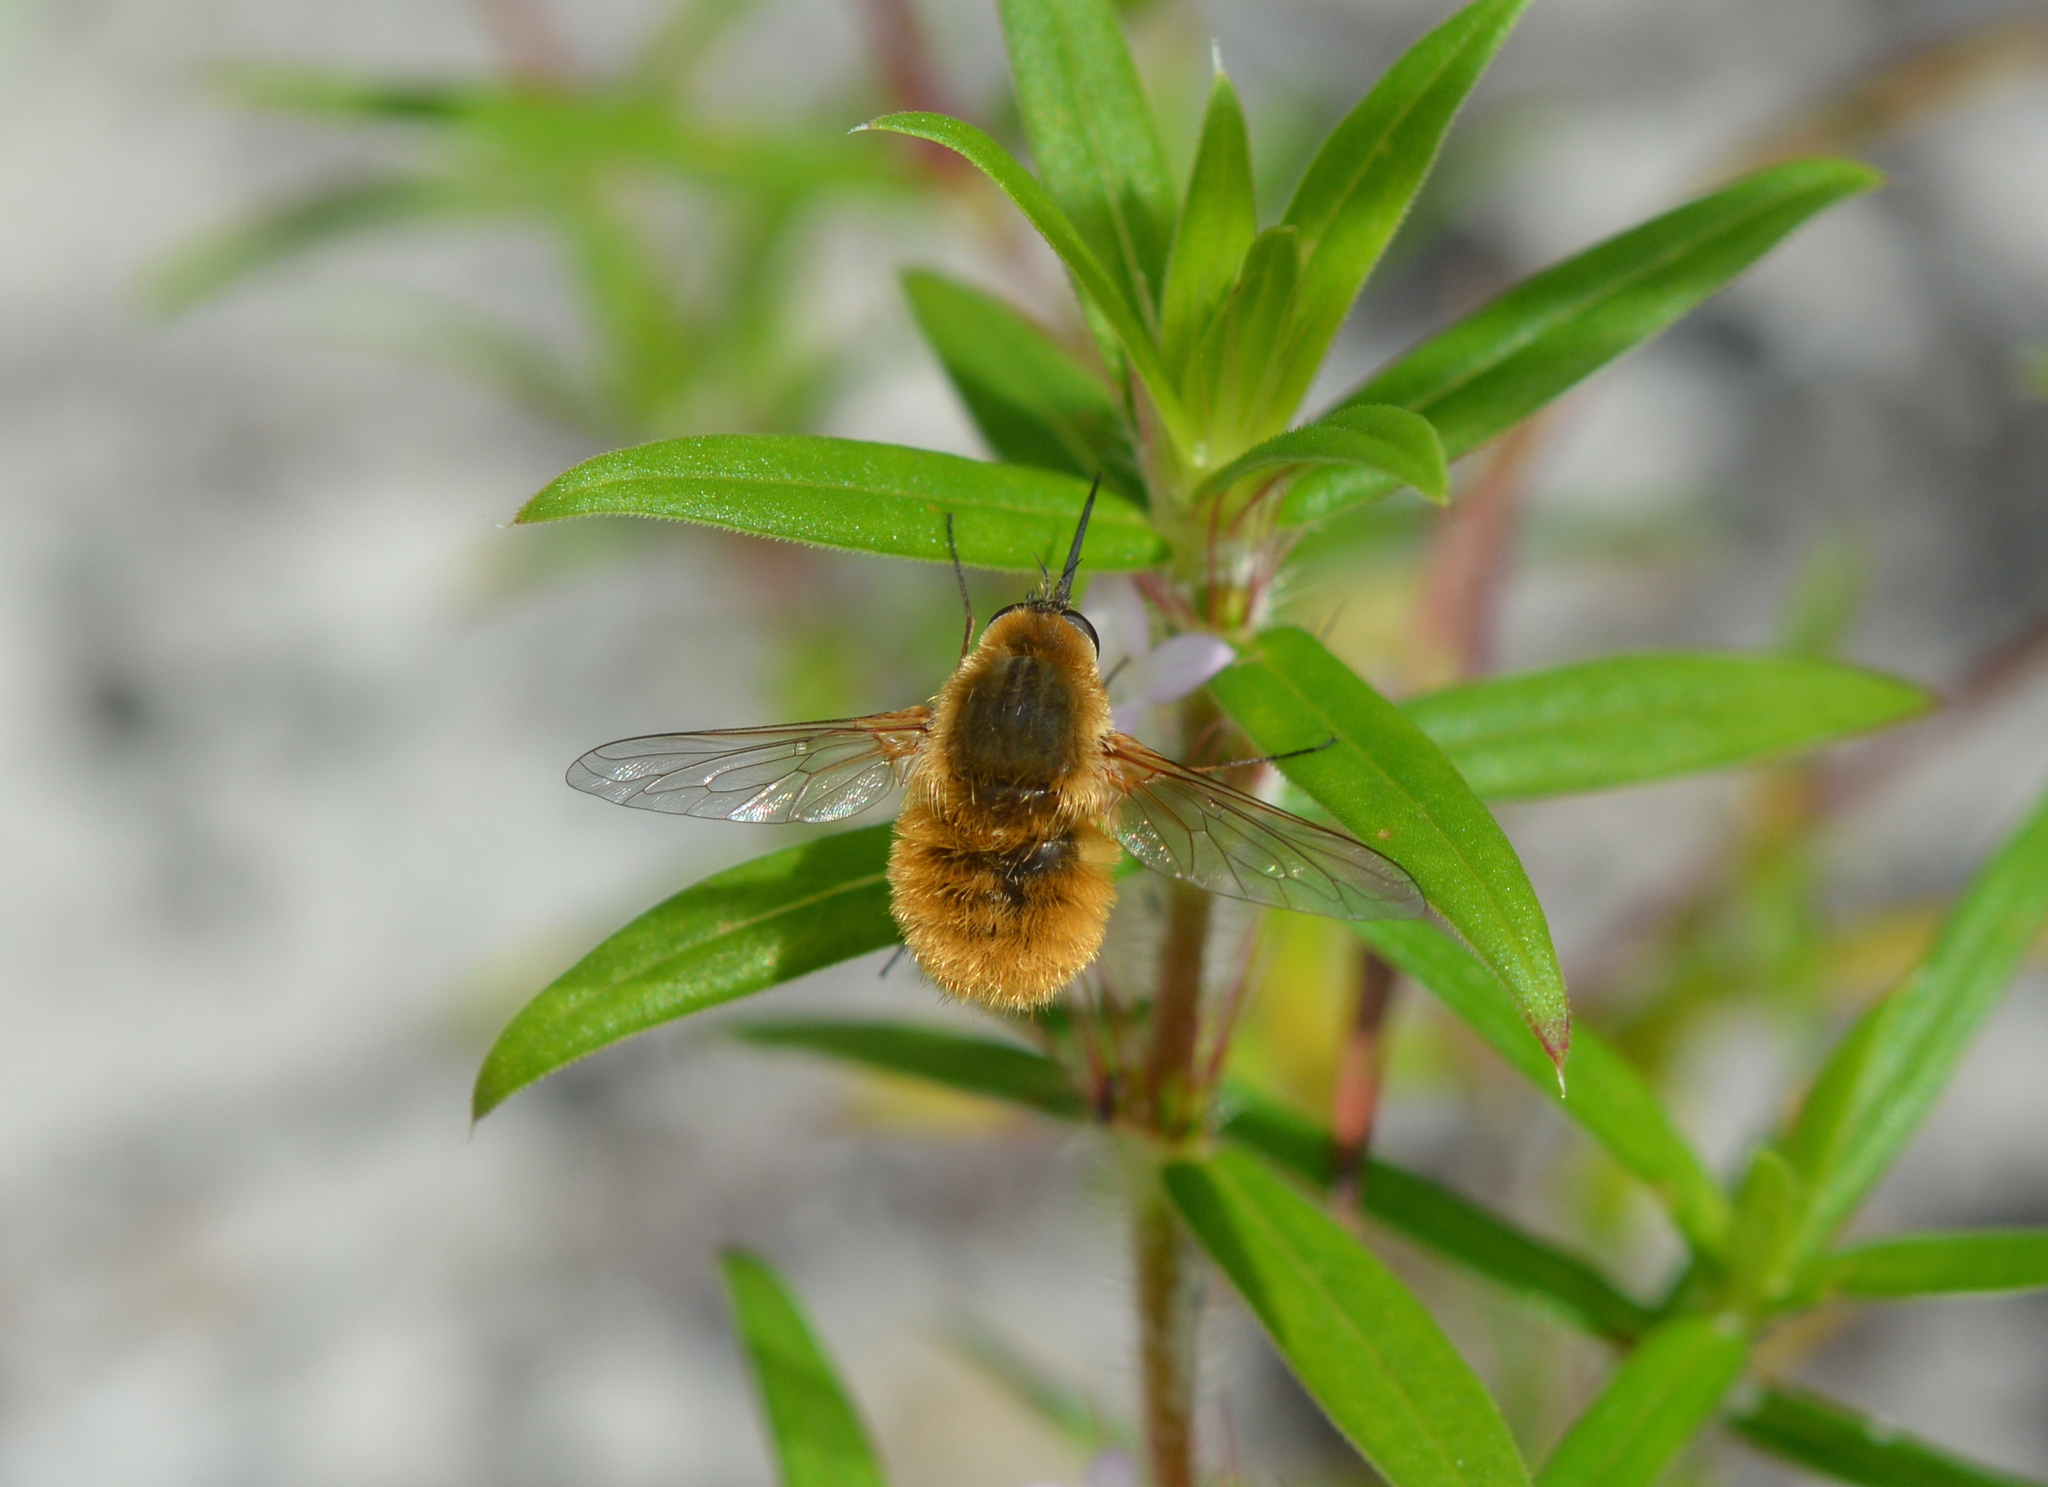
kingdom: Animalia
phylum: Arthropoda
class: Insecta
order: Diptera
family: Bombyliidae
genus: Systoechus
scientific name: Systoechus solitus
